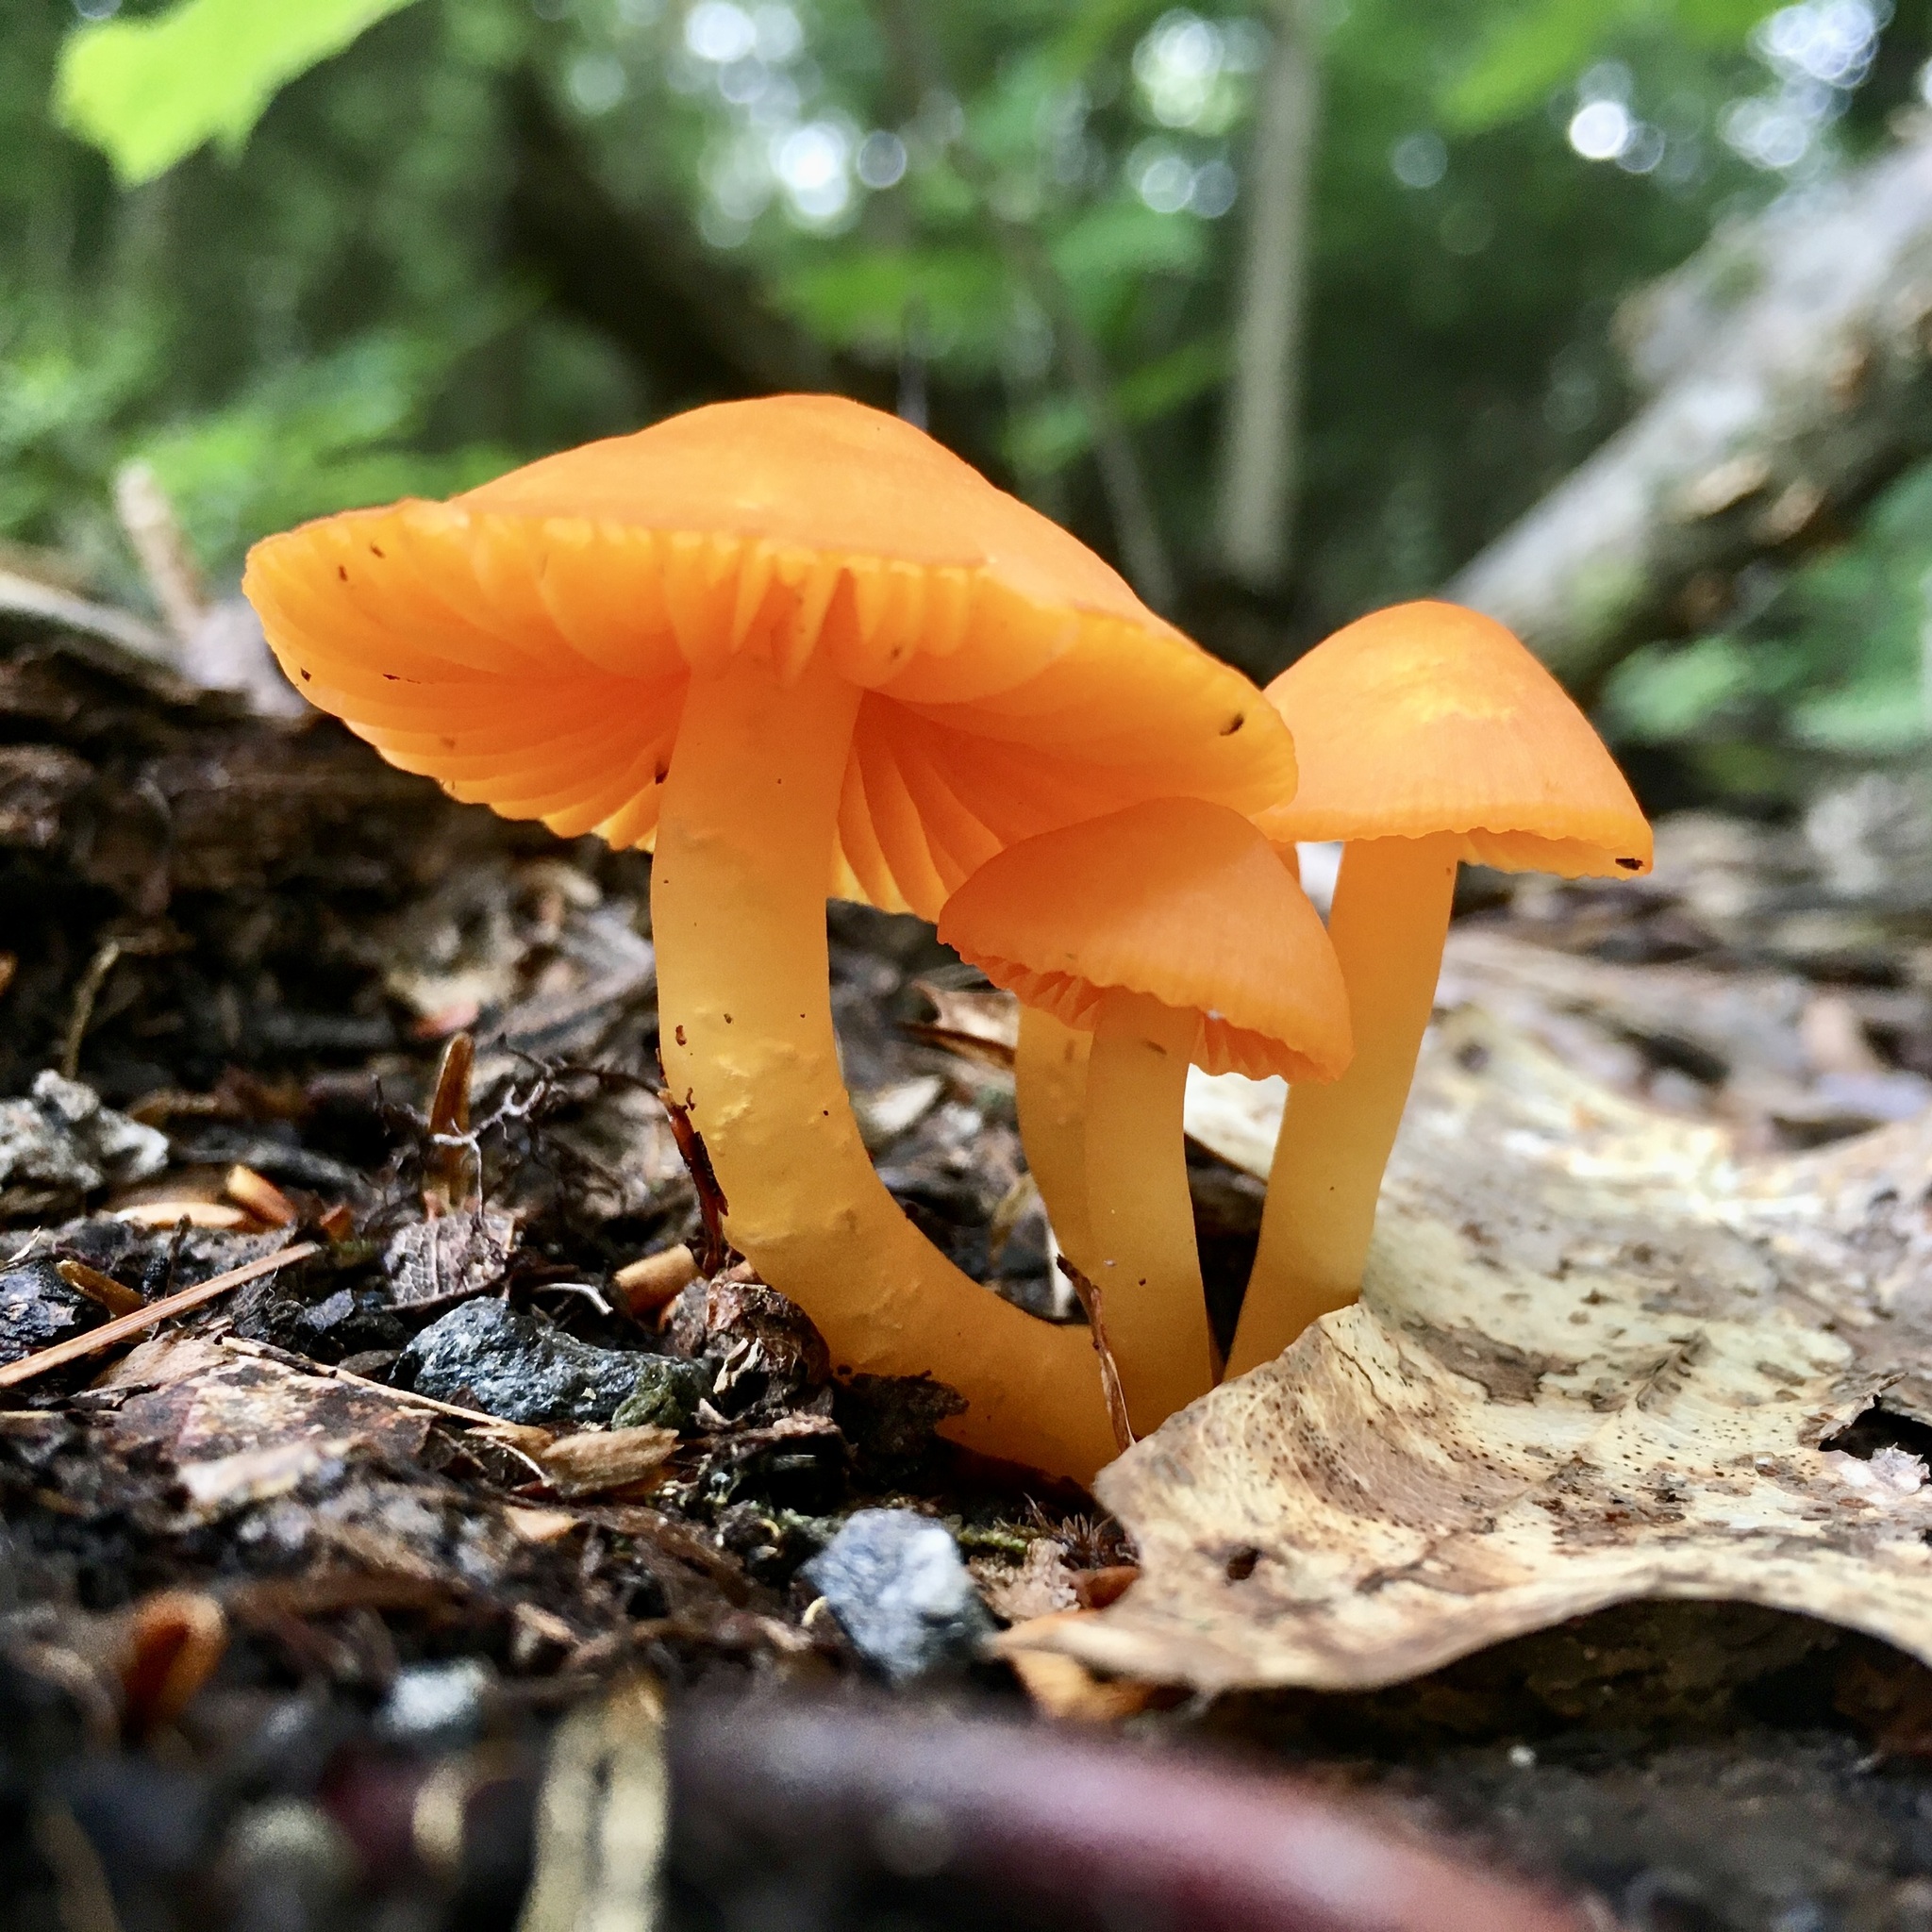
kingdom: Fungi
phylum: Basidiomycota
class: Agaricomycetes
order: Agaricales
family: Hygrophoraceae
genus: Humidicutis
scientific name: Humidicutis marginata
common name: Orange gilled waxcap
